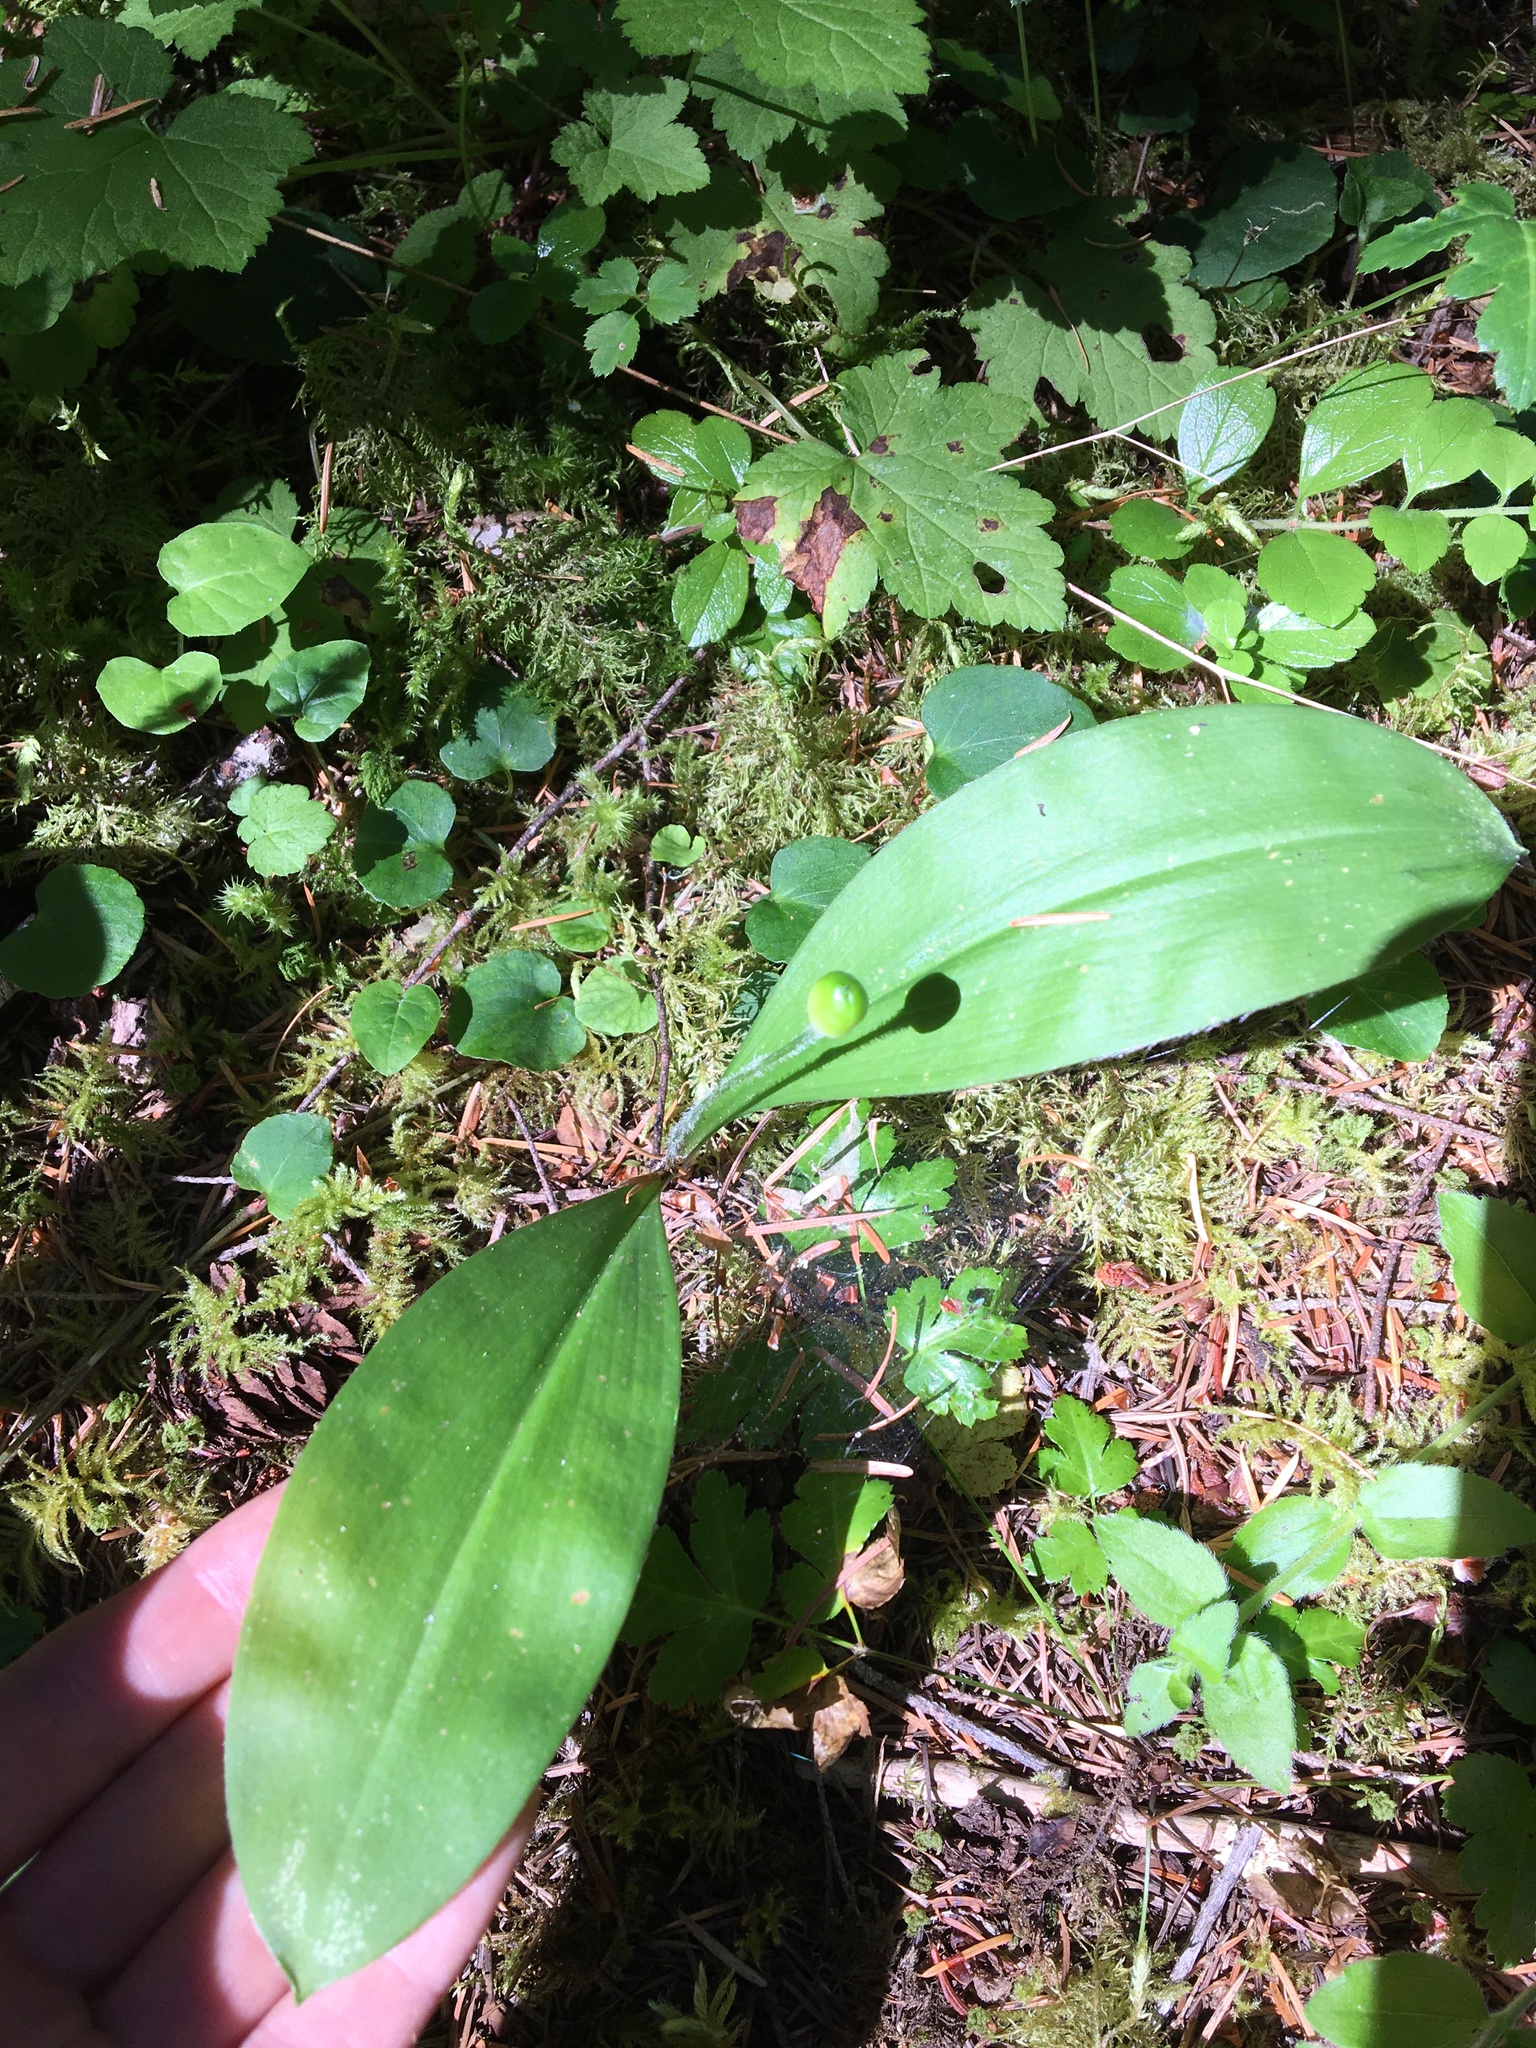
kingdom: Plantae
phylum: Tracheophyta
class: Liliopsida
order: Liliales
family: Liliaceae
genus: Clintonia
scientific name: Clintonia uniflora
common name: Queen's cup
